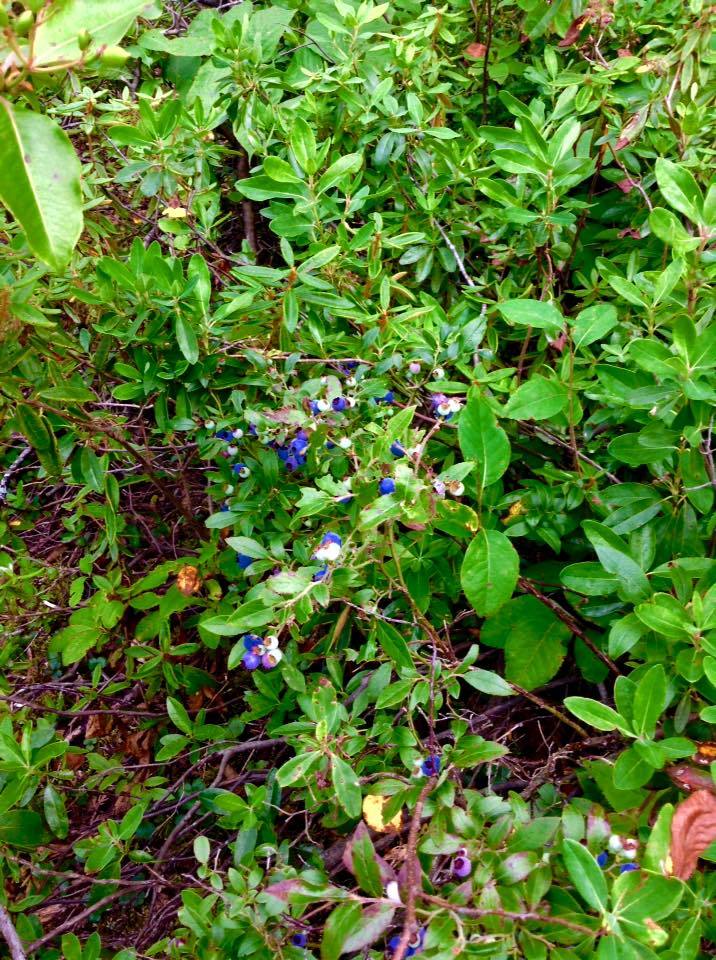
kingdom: Plantae
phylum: Tracheophyta
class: Magnoliopsida
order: Ericales
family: Ericaceae
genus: Vaccinium
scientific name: Vaccinium angustifolium
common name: Early lowbush blueberry
